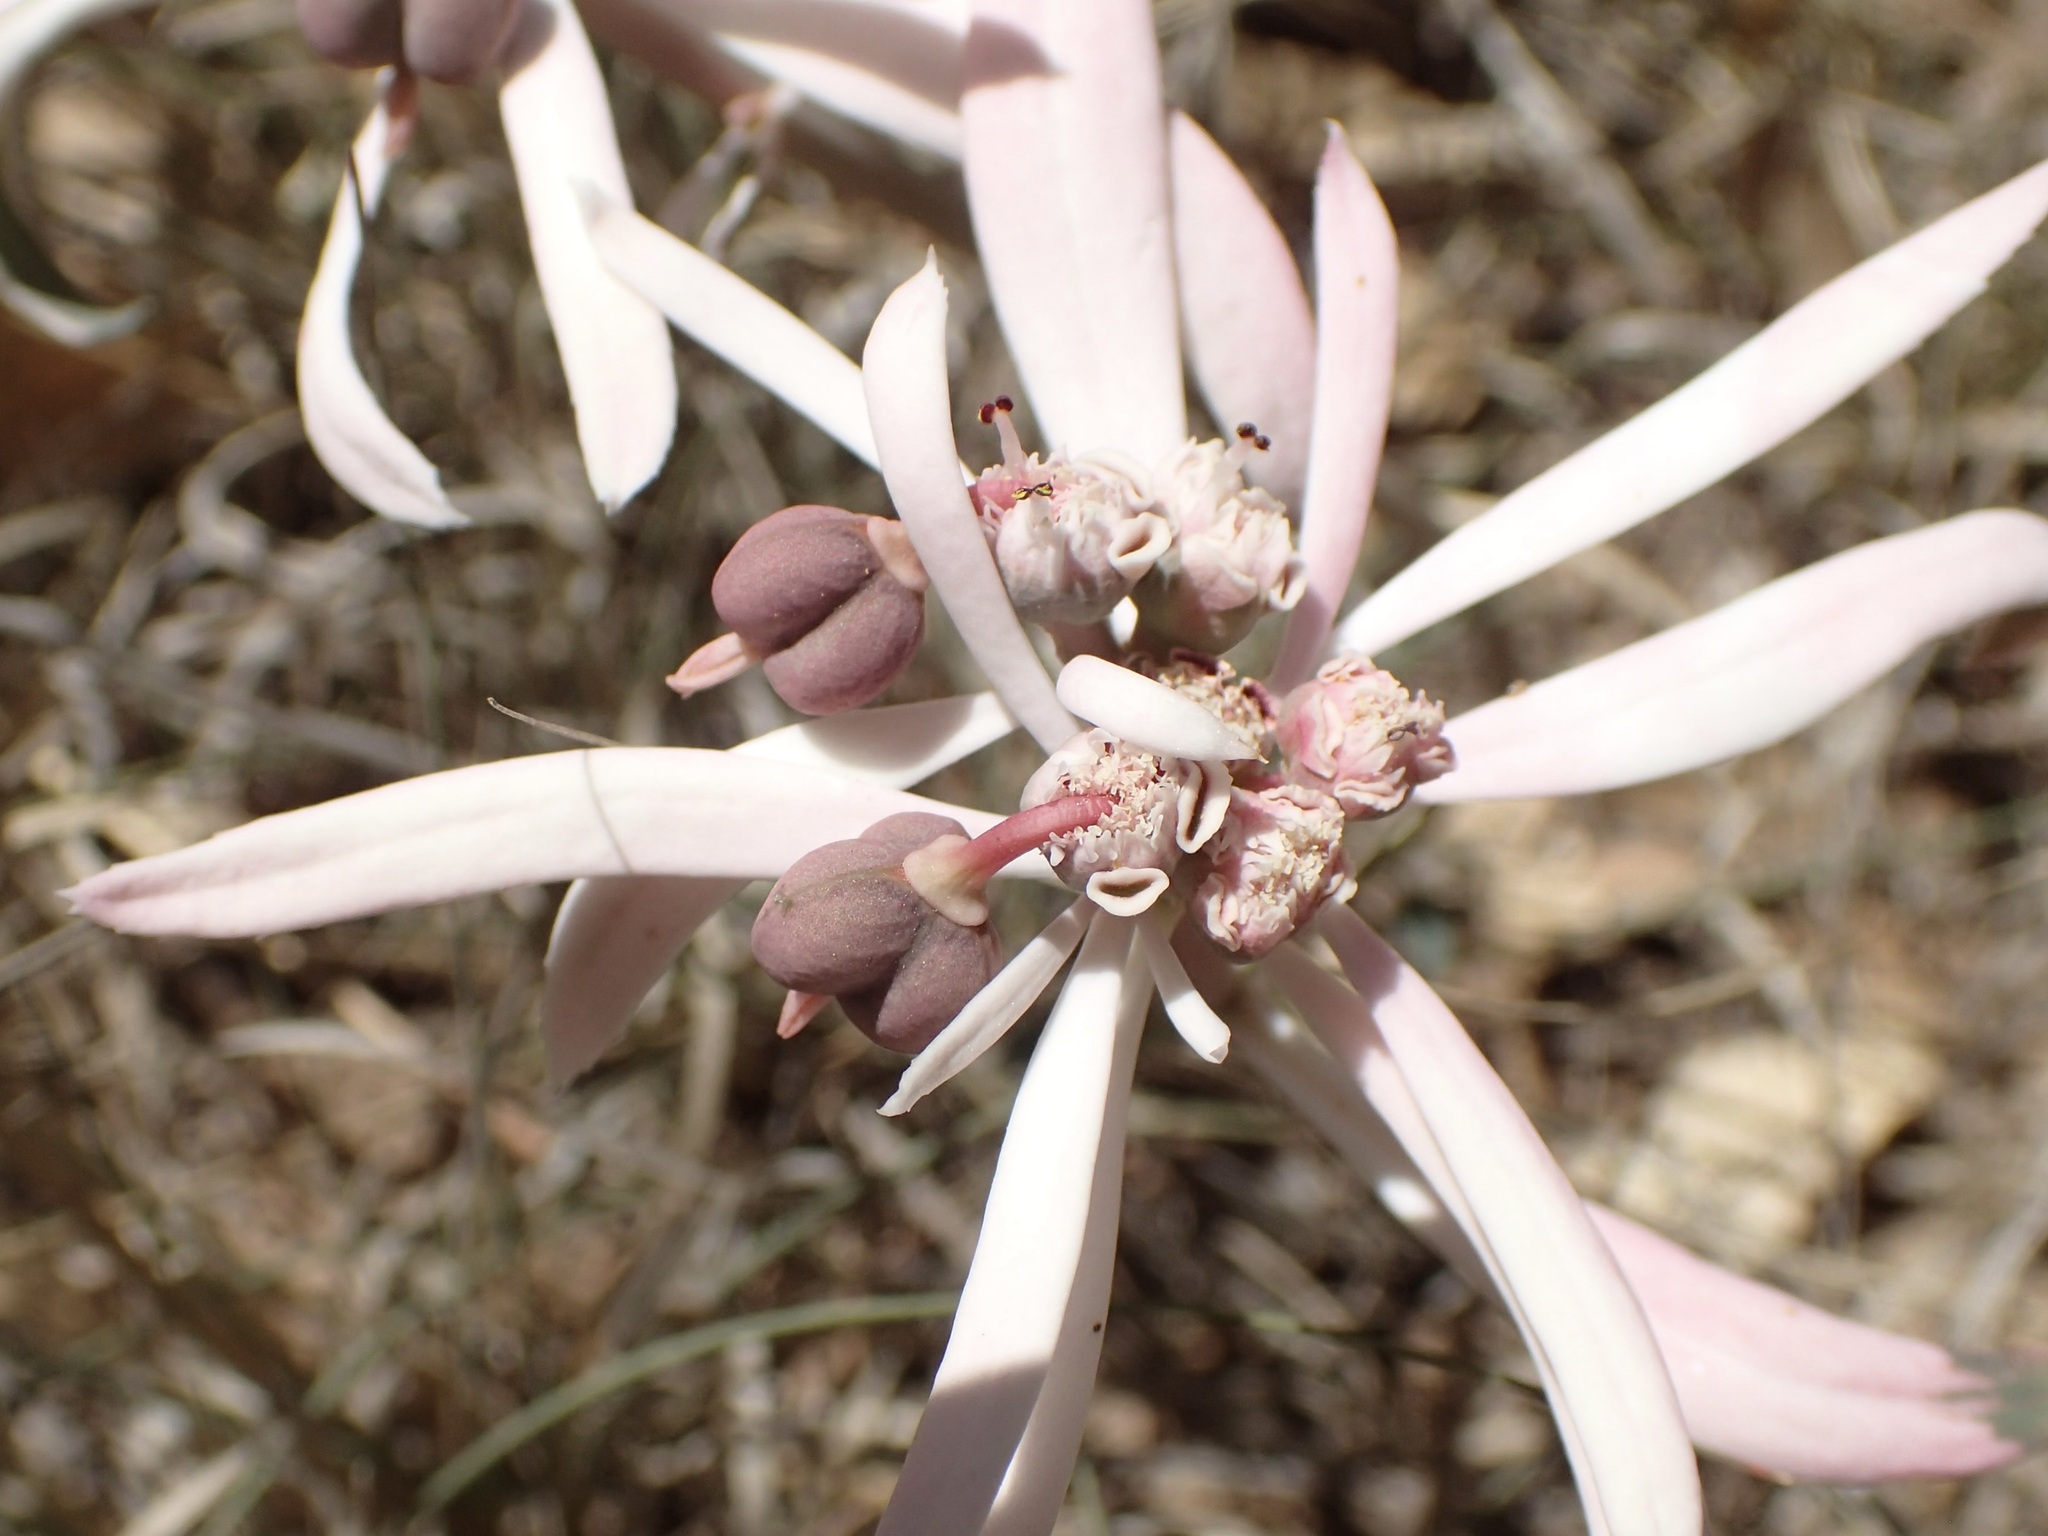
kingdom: Plantae
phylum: Tracheophyta
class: Magnoliopsida
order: Malpighiales
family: Euphorbiaceae
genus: Euphorbia
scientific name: Euphorbia radians
